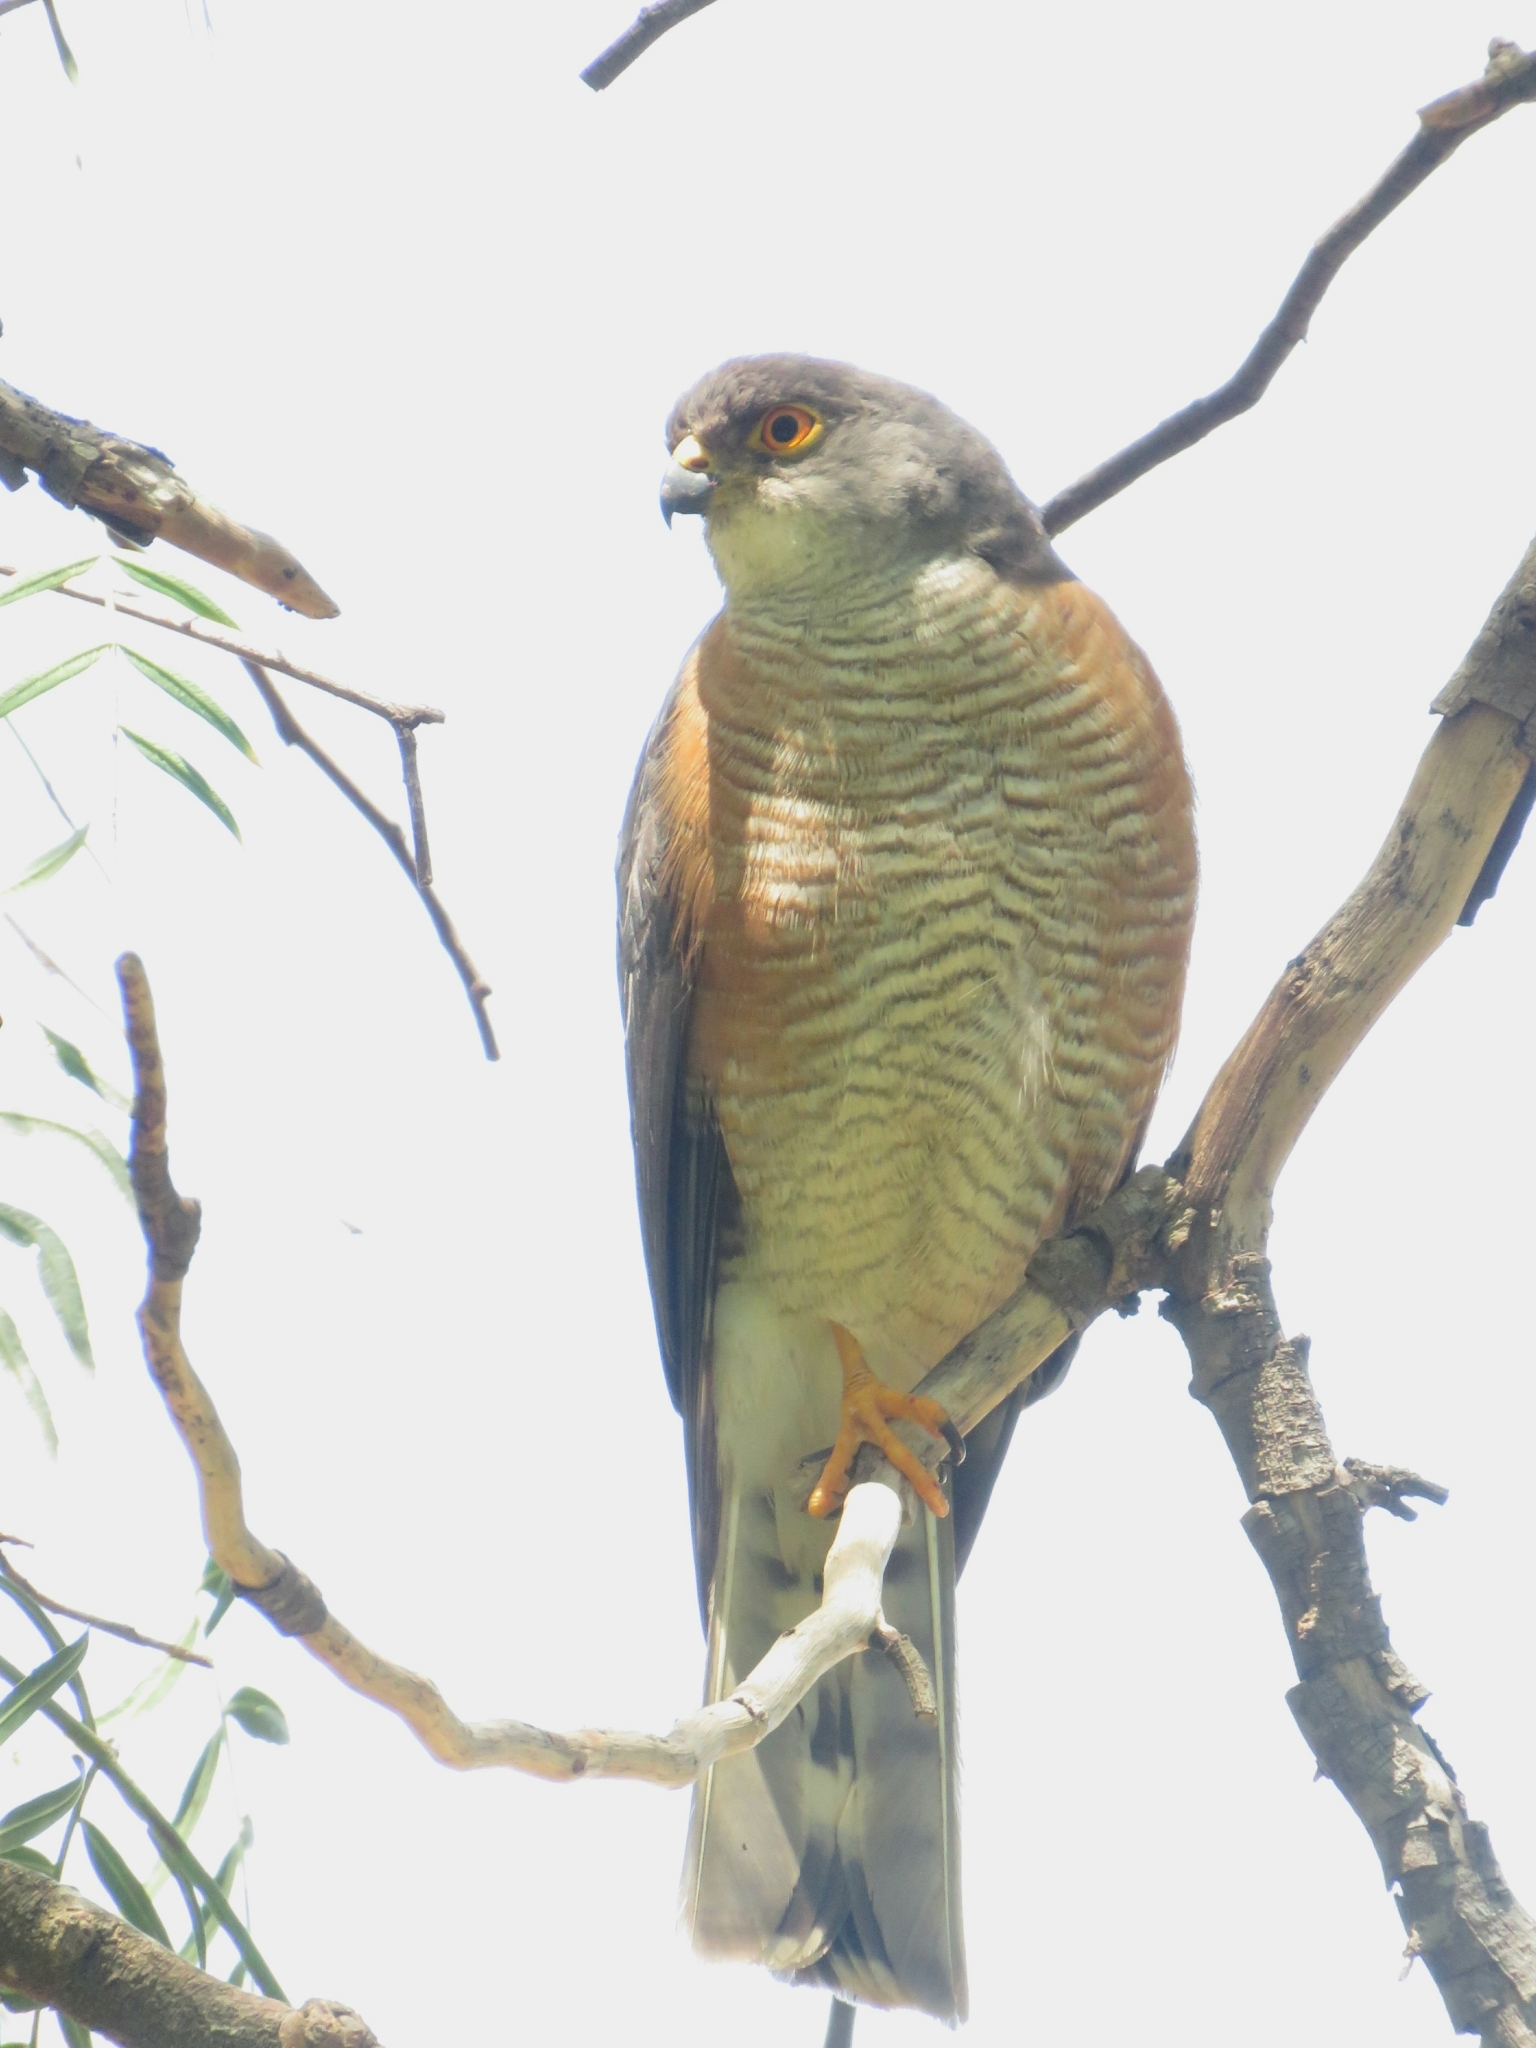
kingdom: Animalia
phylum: Chordata
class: Aves
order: Accipitriformes
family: Accipitridae
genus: Accipiter
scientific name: Accipiter minullus
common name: Little sparrowhawk
